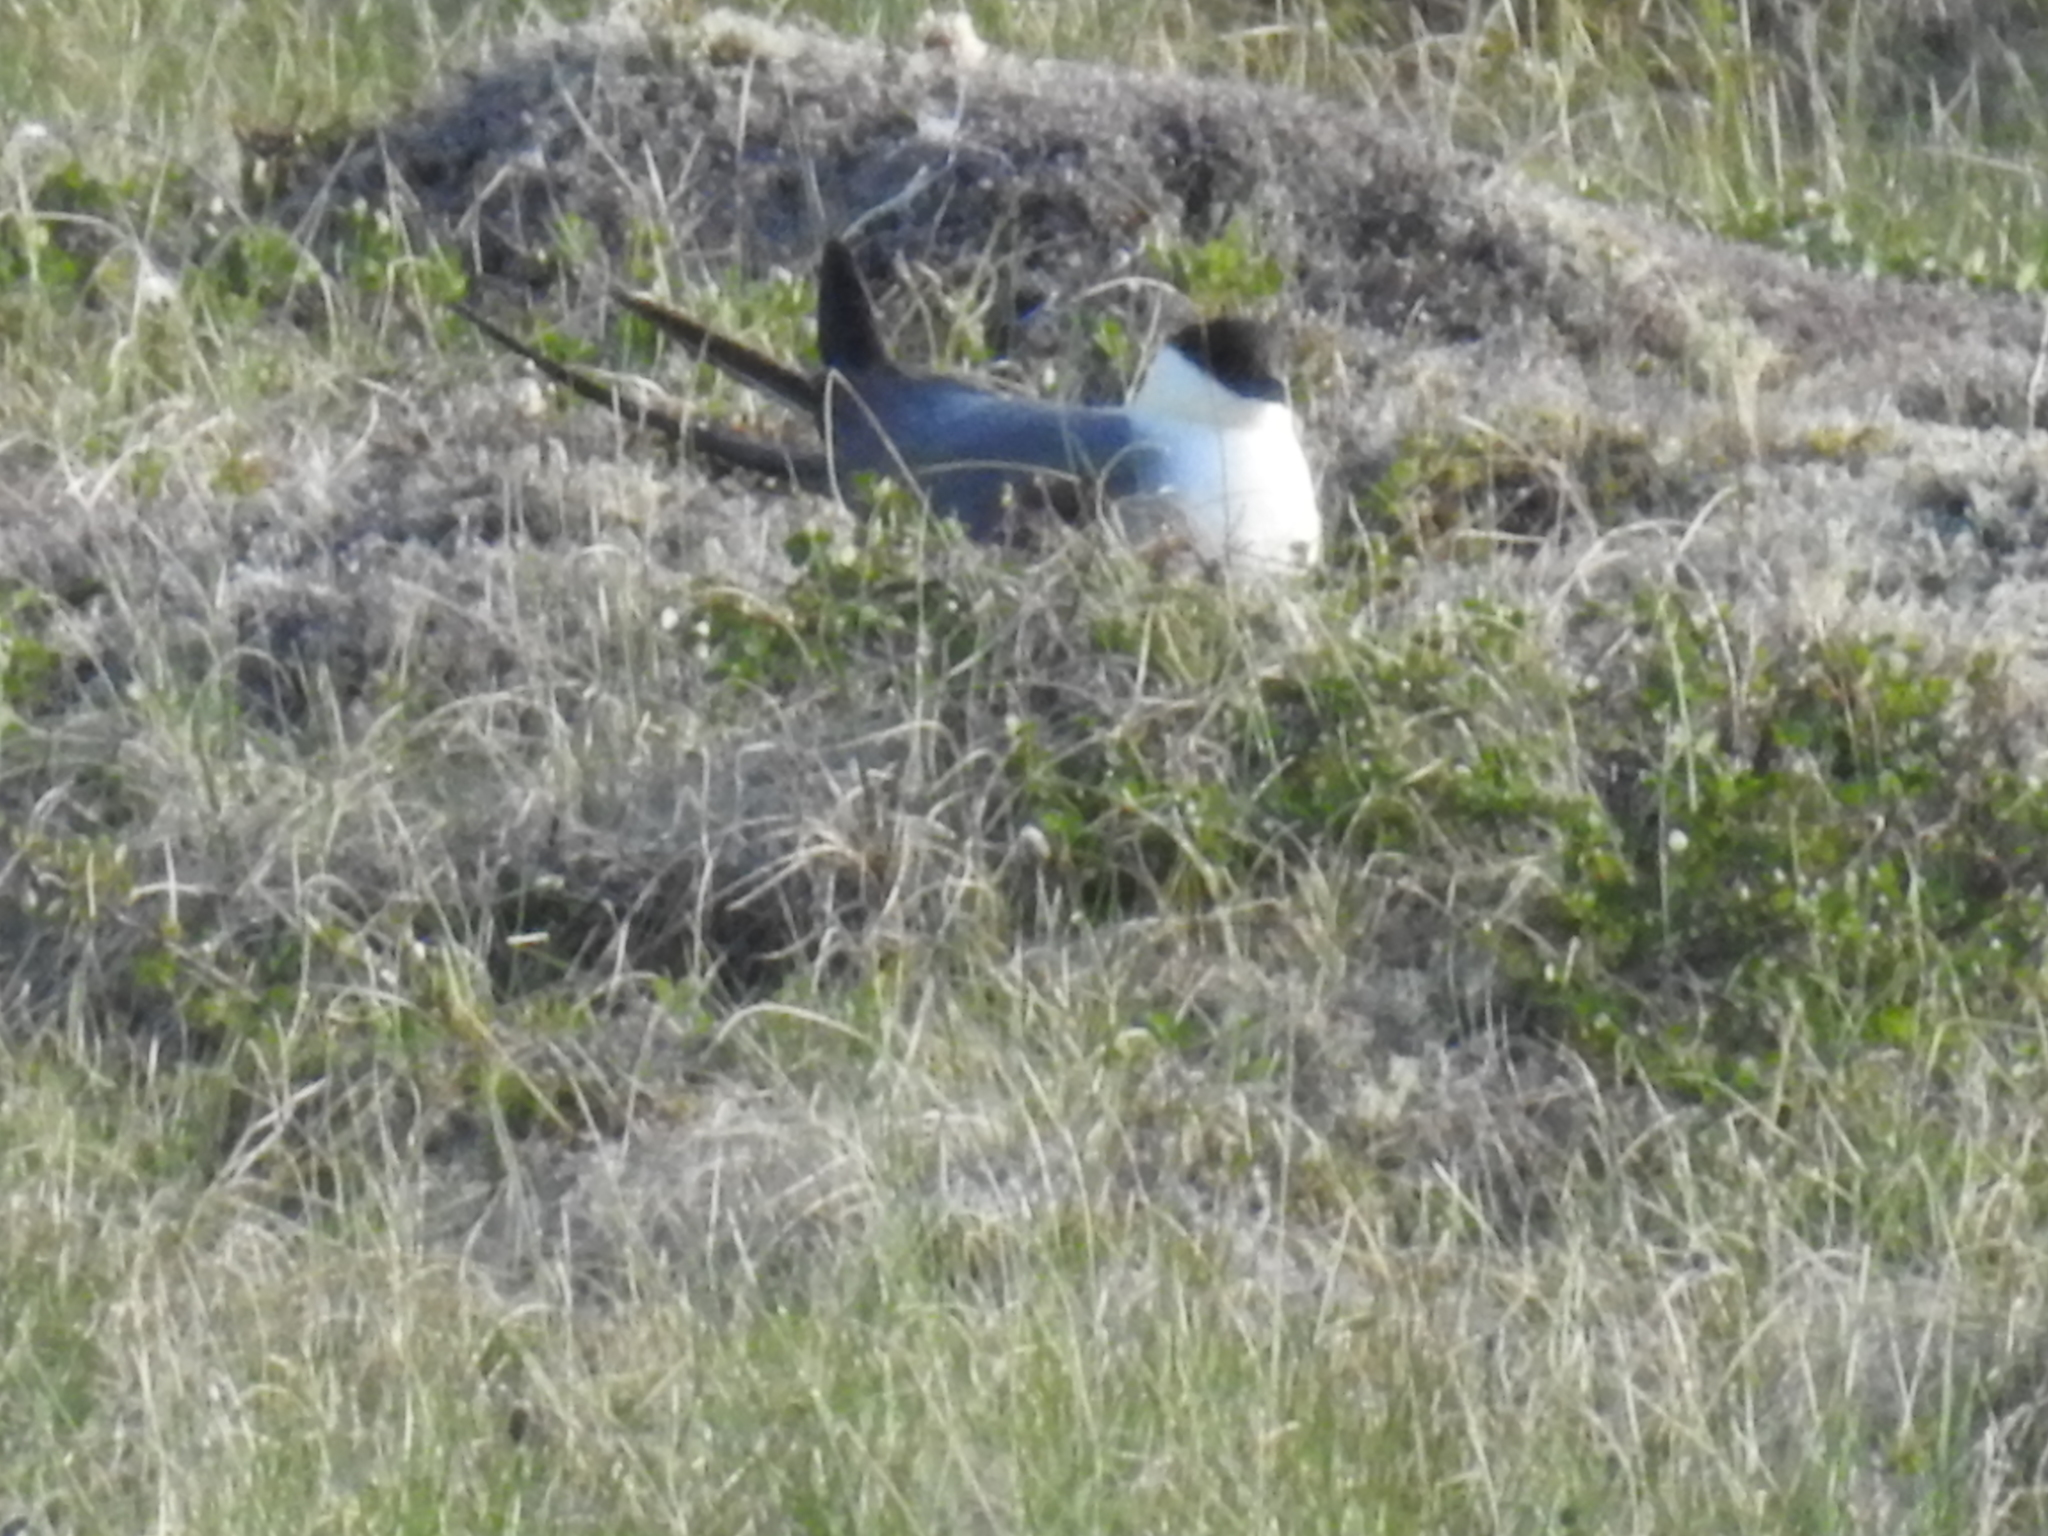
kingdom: Animalia
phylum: Chordata
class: Aves
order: Charadriiformes
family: Stercorariidae
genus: Stercorarius
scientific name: Stercorarius longicaudus
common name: Long-tailed jaeger
